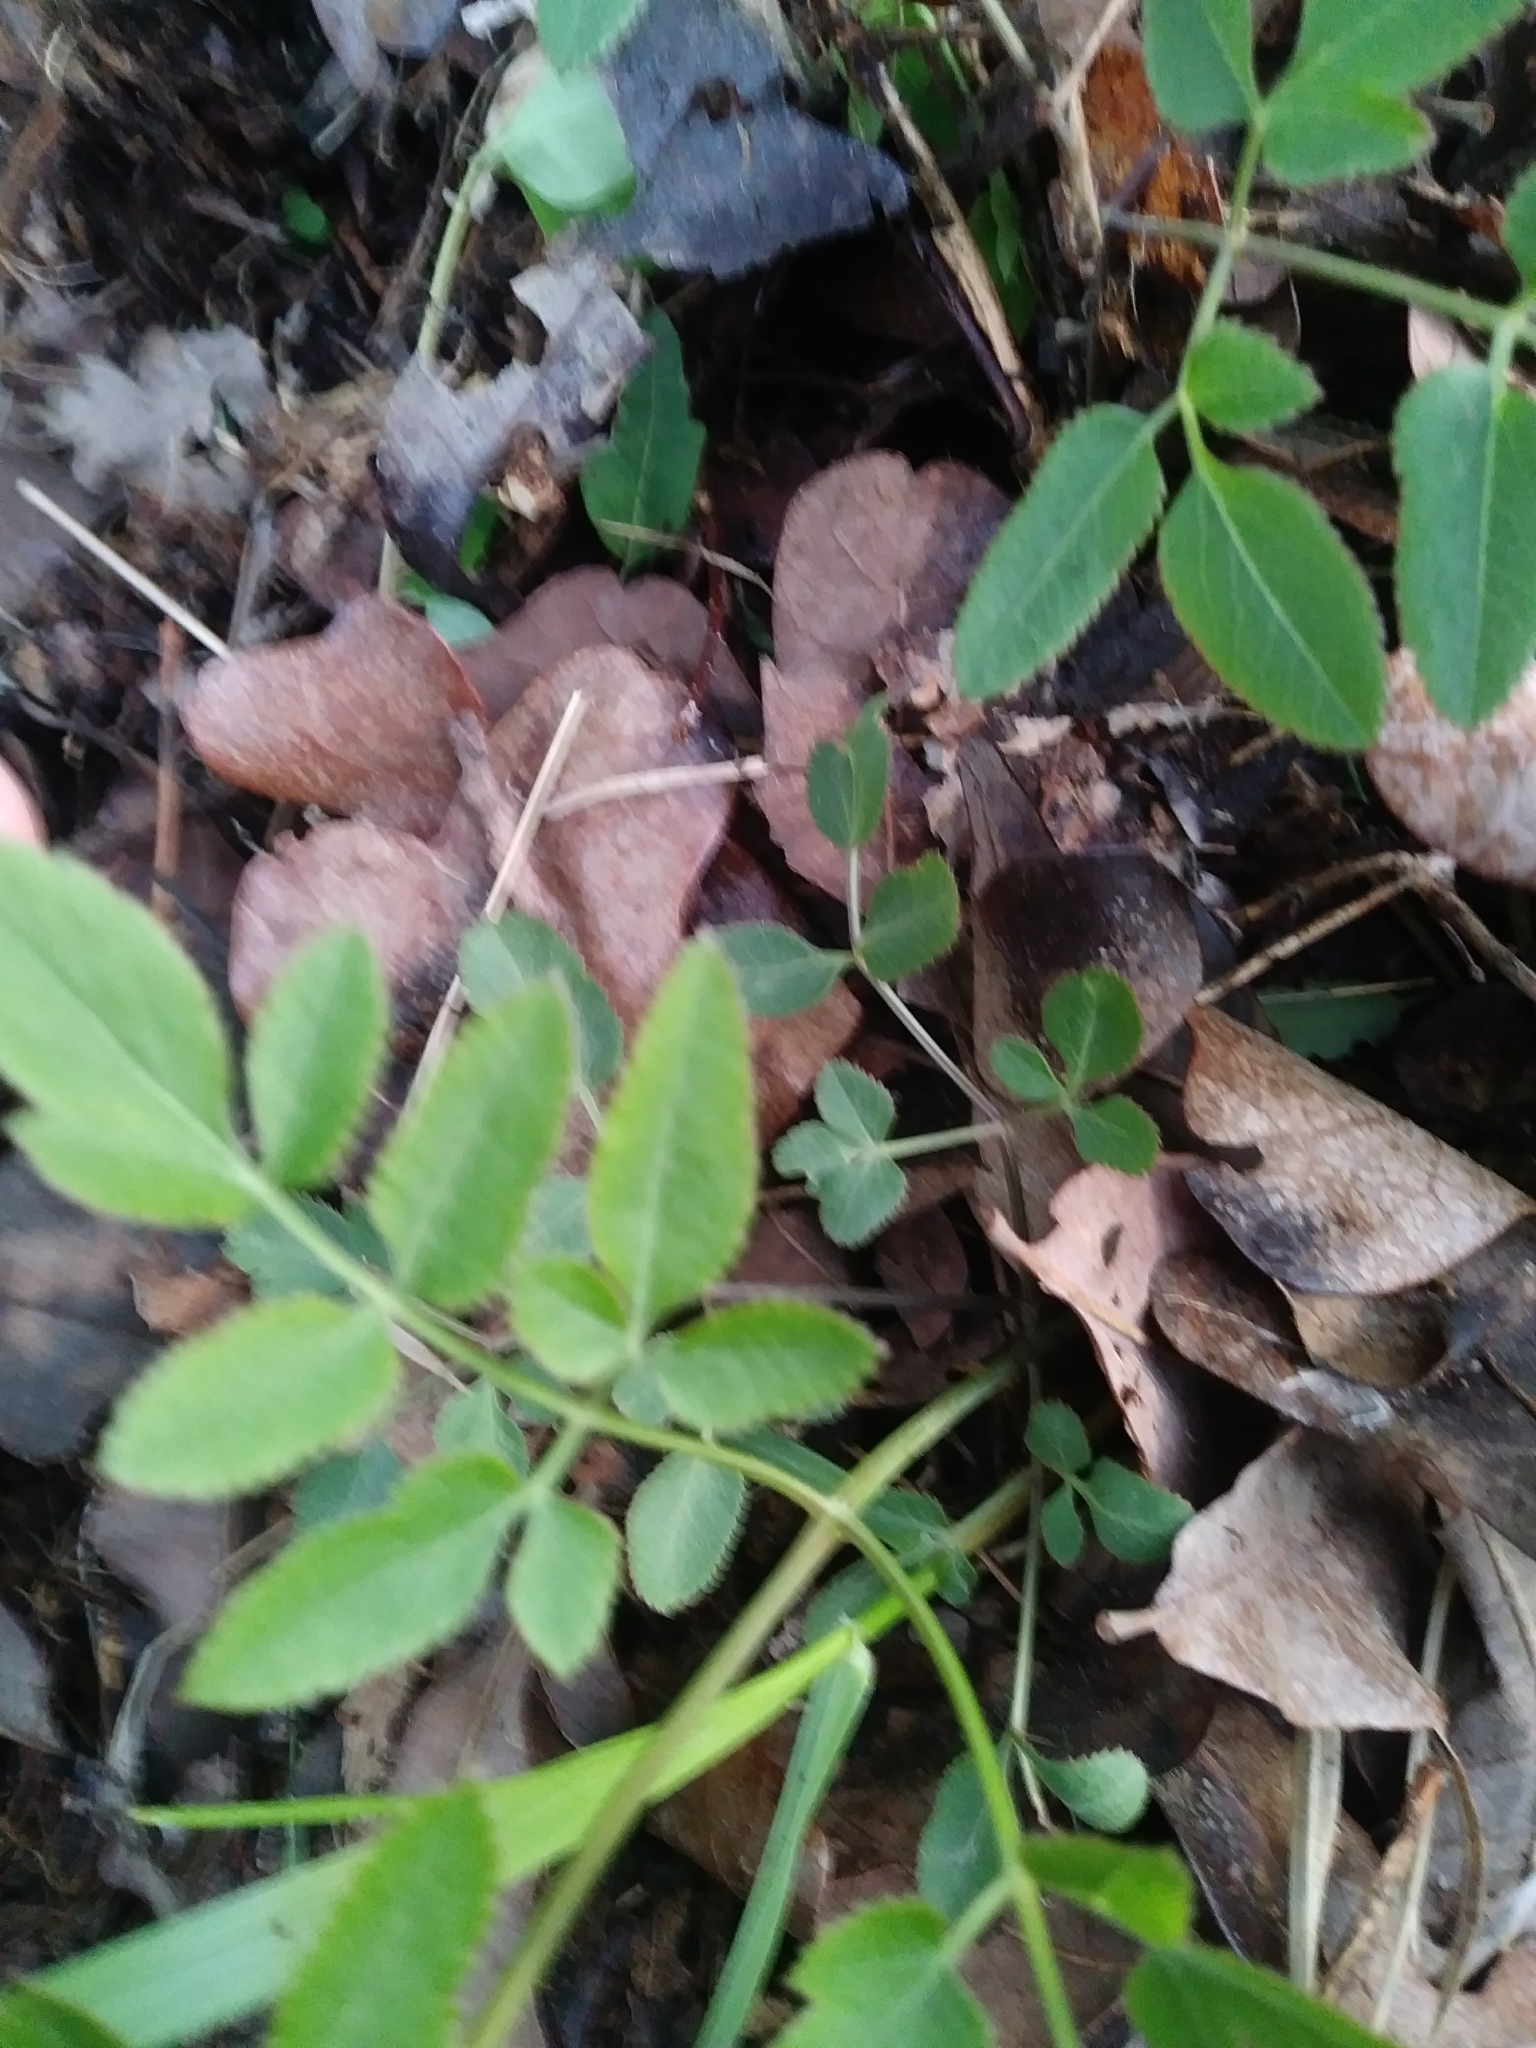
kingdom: Plantae
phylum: Tracheophyta
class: Magnoliopsida
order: Apiales
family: Apiaceae
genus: Angelica
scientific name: Angelica venenosa
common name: Hairy angelica
